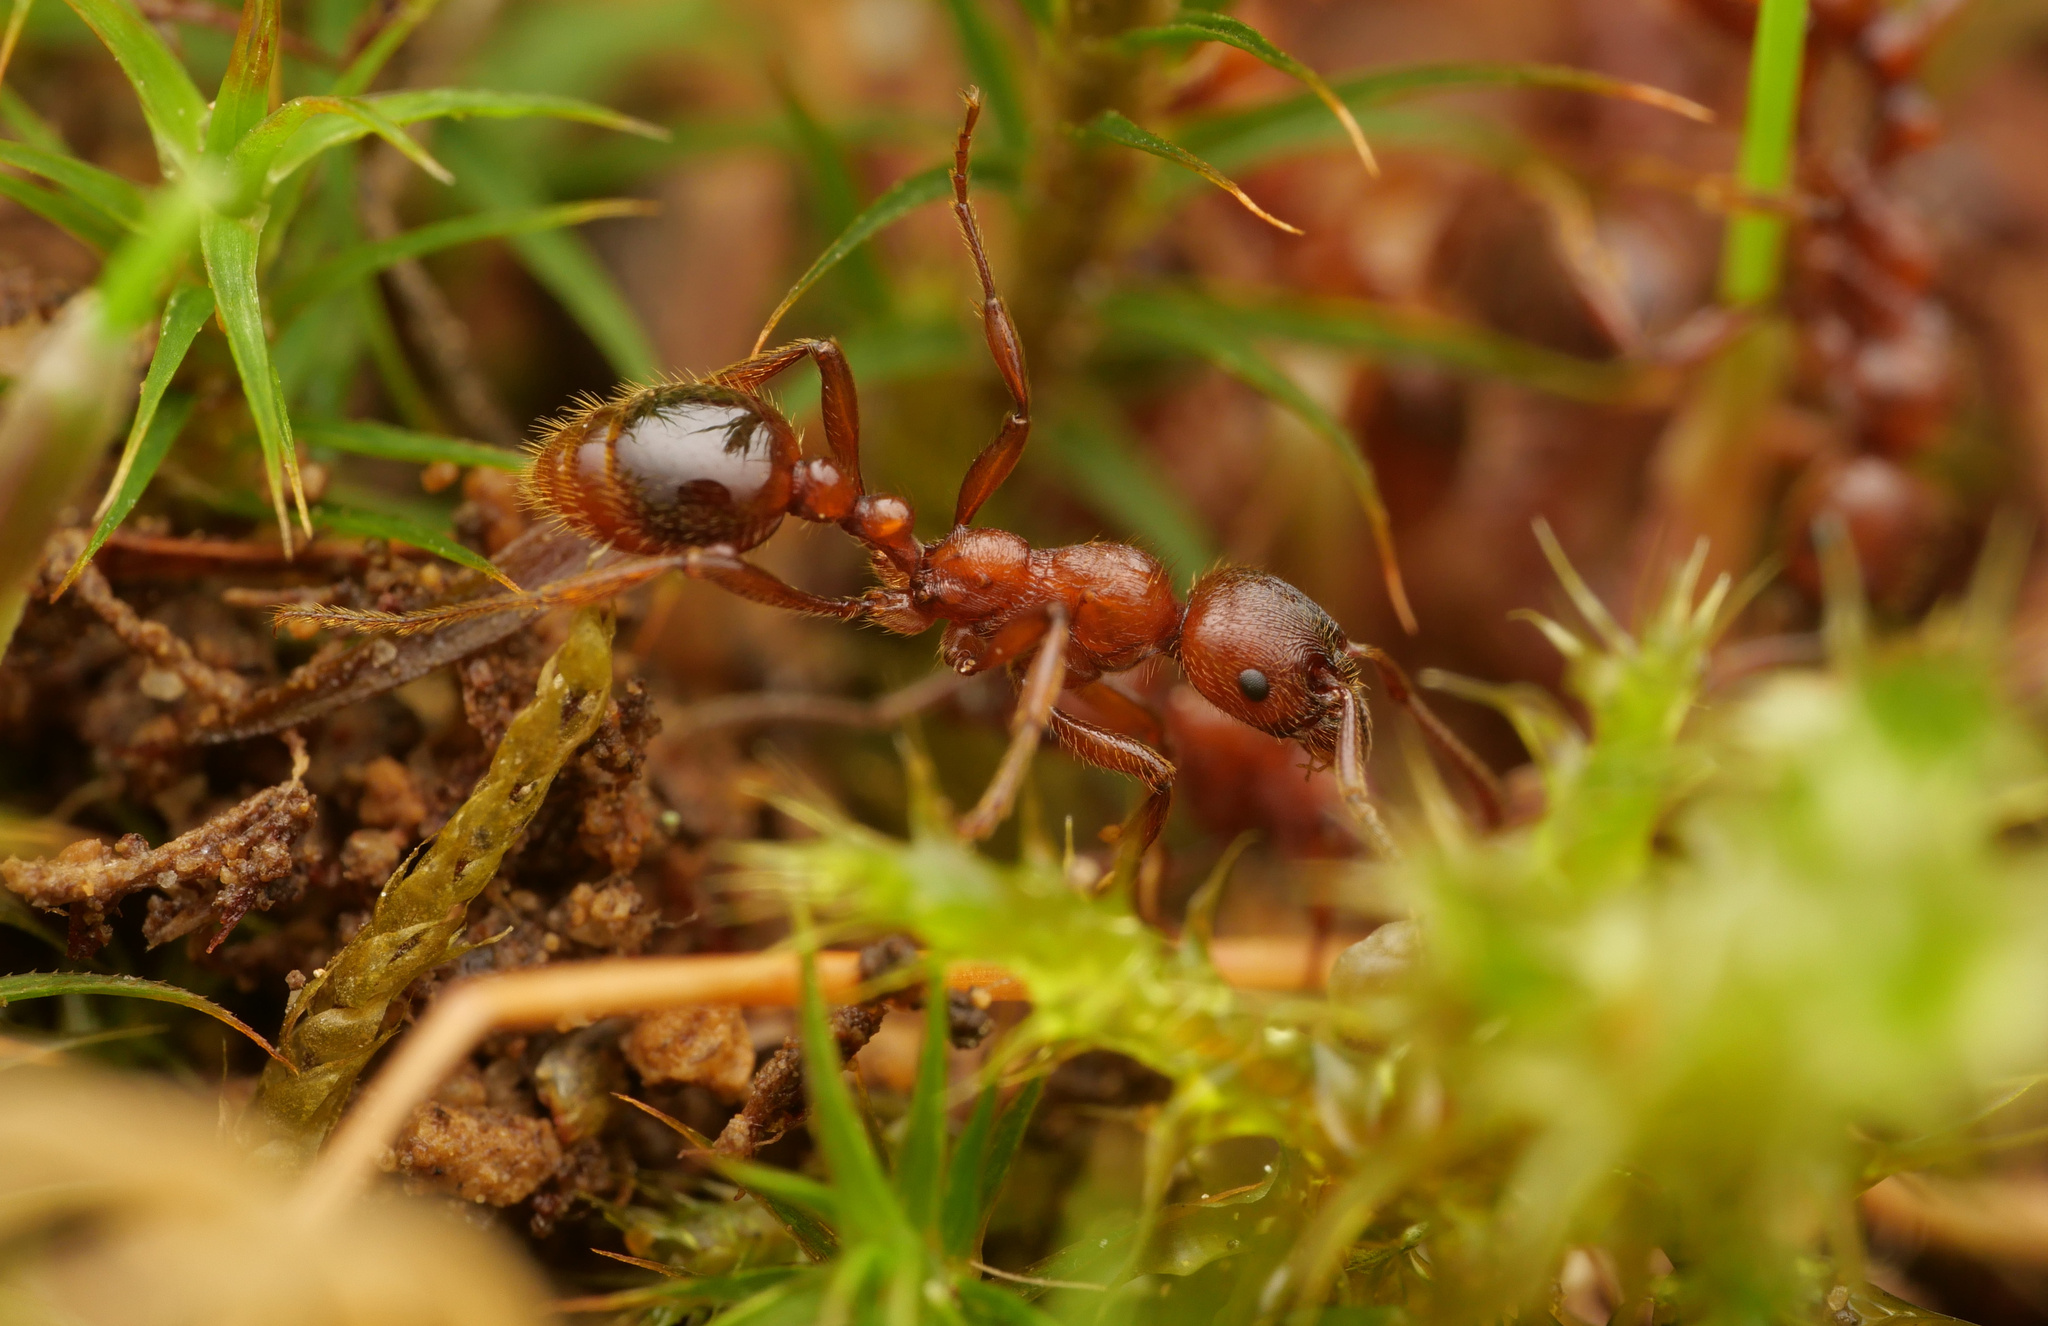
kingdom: Animalia
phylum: Arthropoda
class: Insecta
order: Hymenoptera
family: Formicidae
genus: Manica
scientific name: Manica rubida
